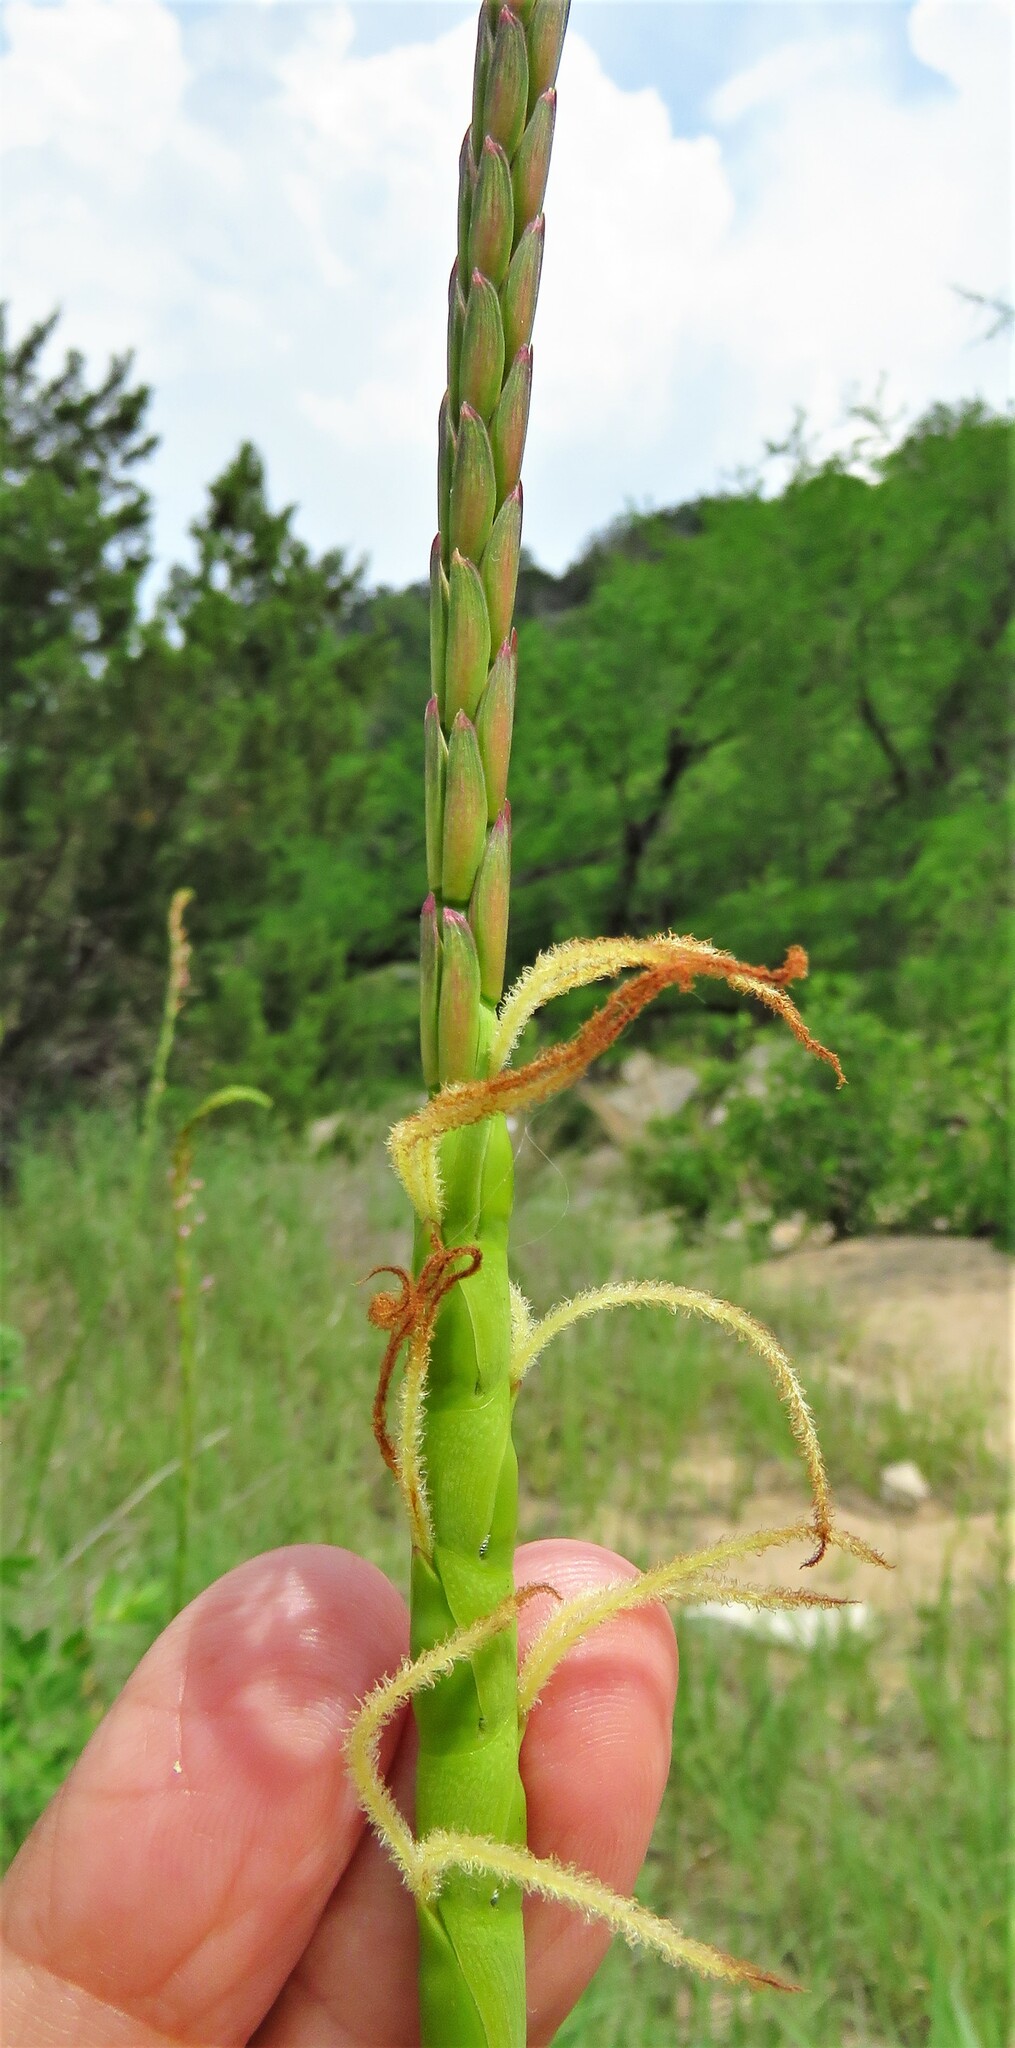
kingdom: Plantae
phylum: Tracheophyta
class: Liliopsida
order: Poales
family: Poaceae
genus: Tripsacum
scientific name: Tripsacum dactyloides
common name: Buffalo-grass
